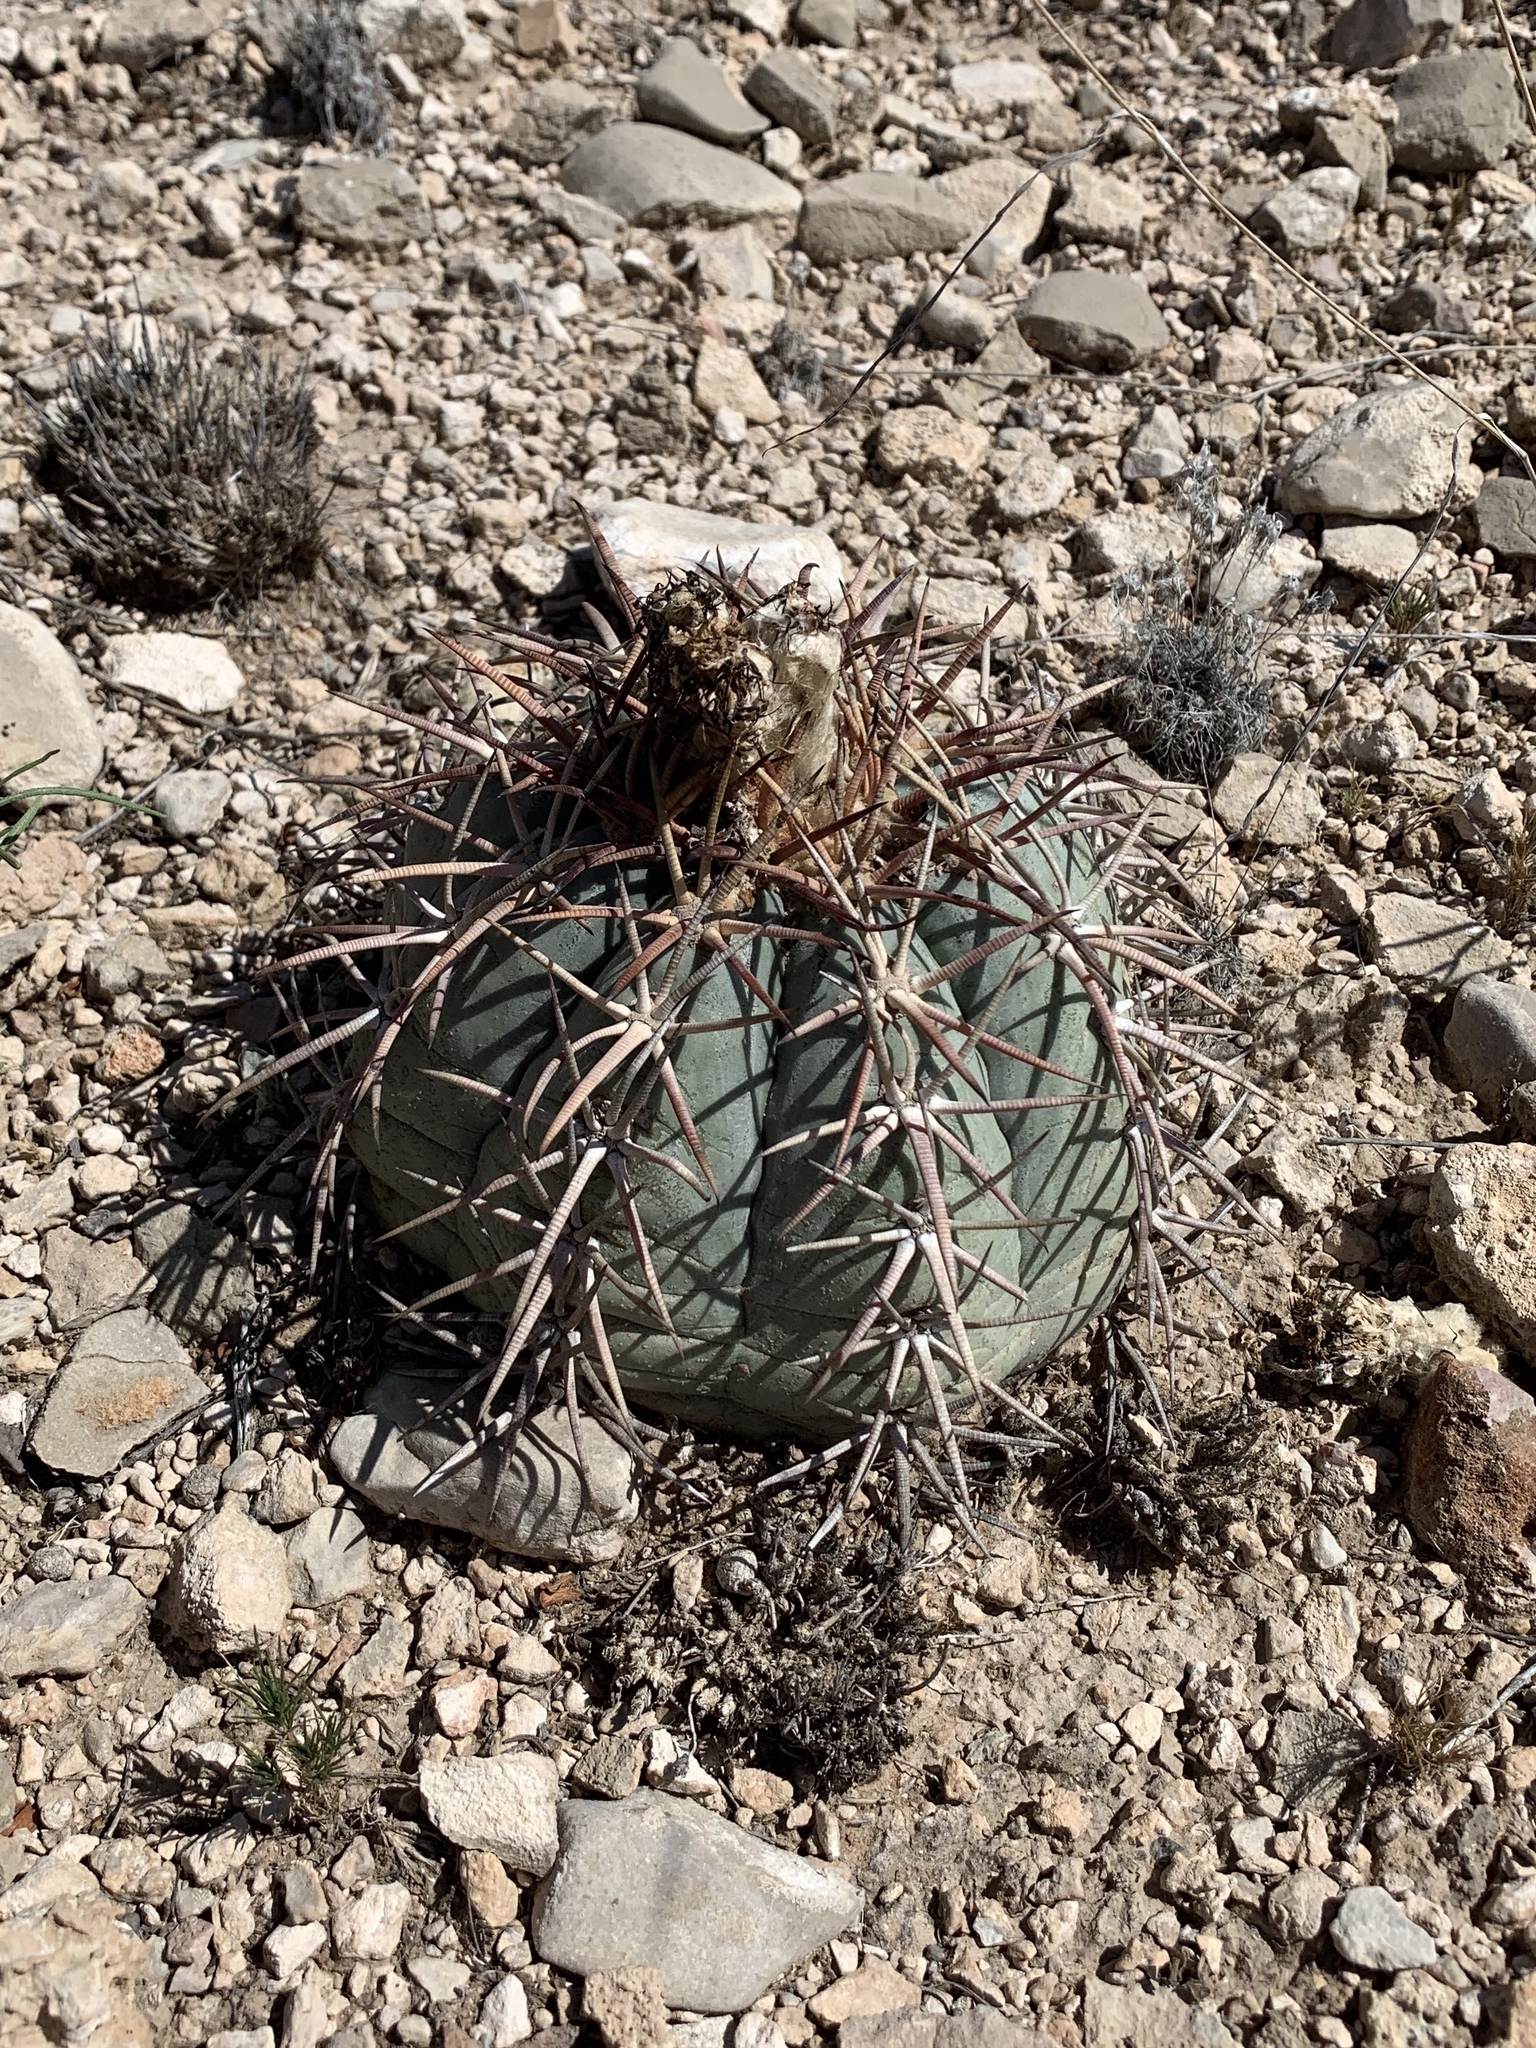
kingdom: Plantae
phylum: Tracheophyta
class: Magnoliopsida
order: Caryophyllales
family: Cactaceae
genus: Echinocactus
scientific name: Echinocactus horizonthalonius
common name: Devilshead
